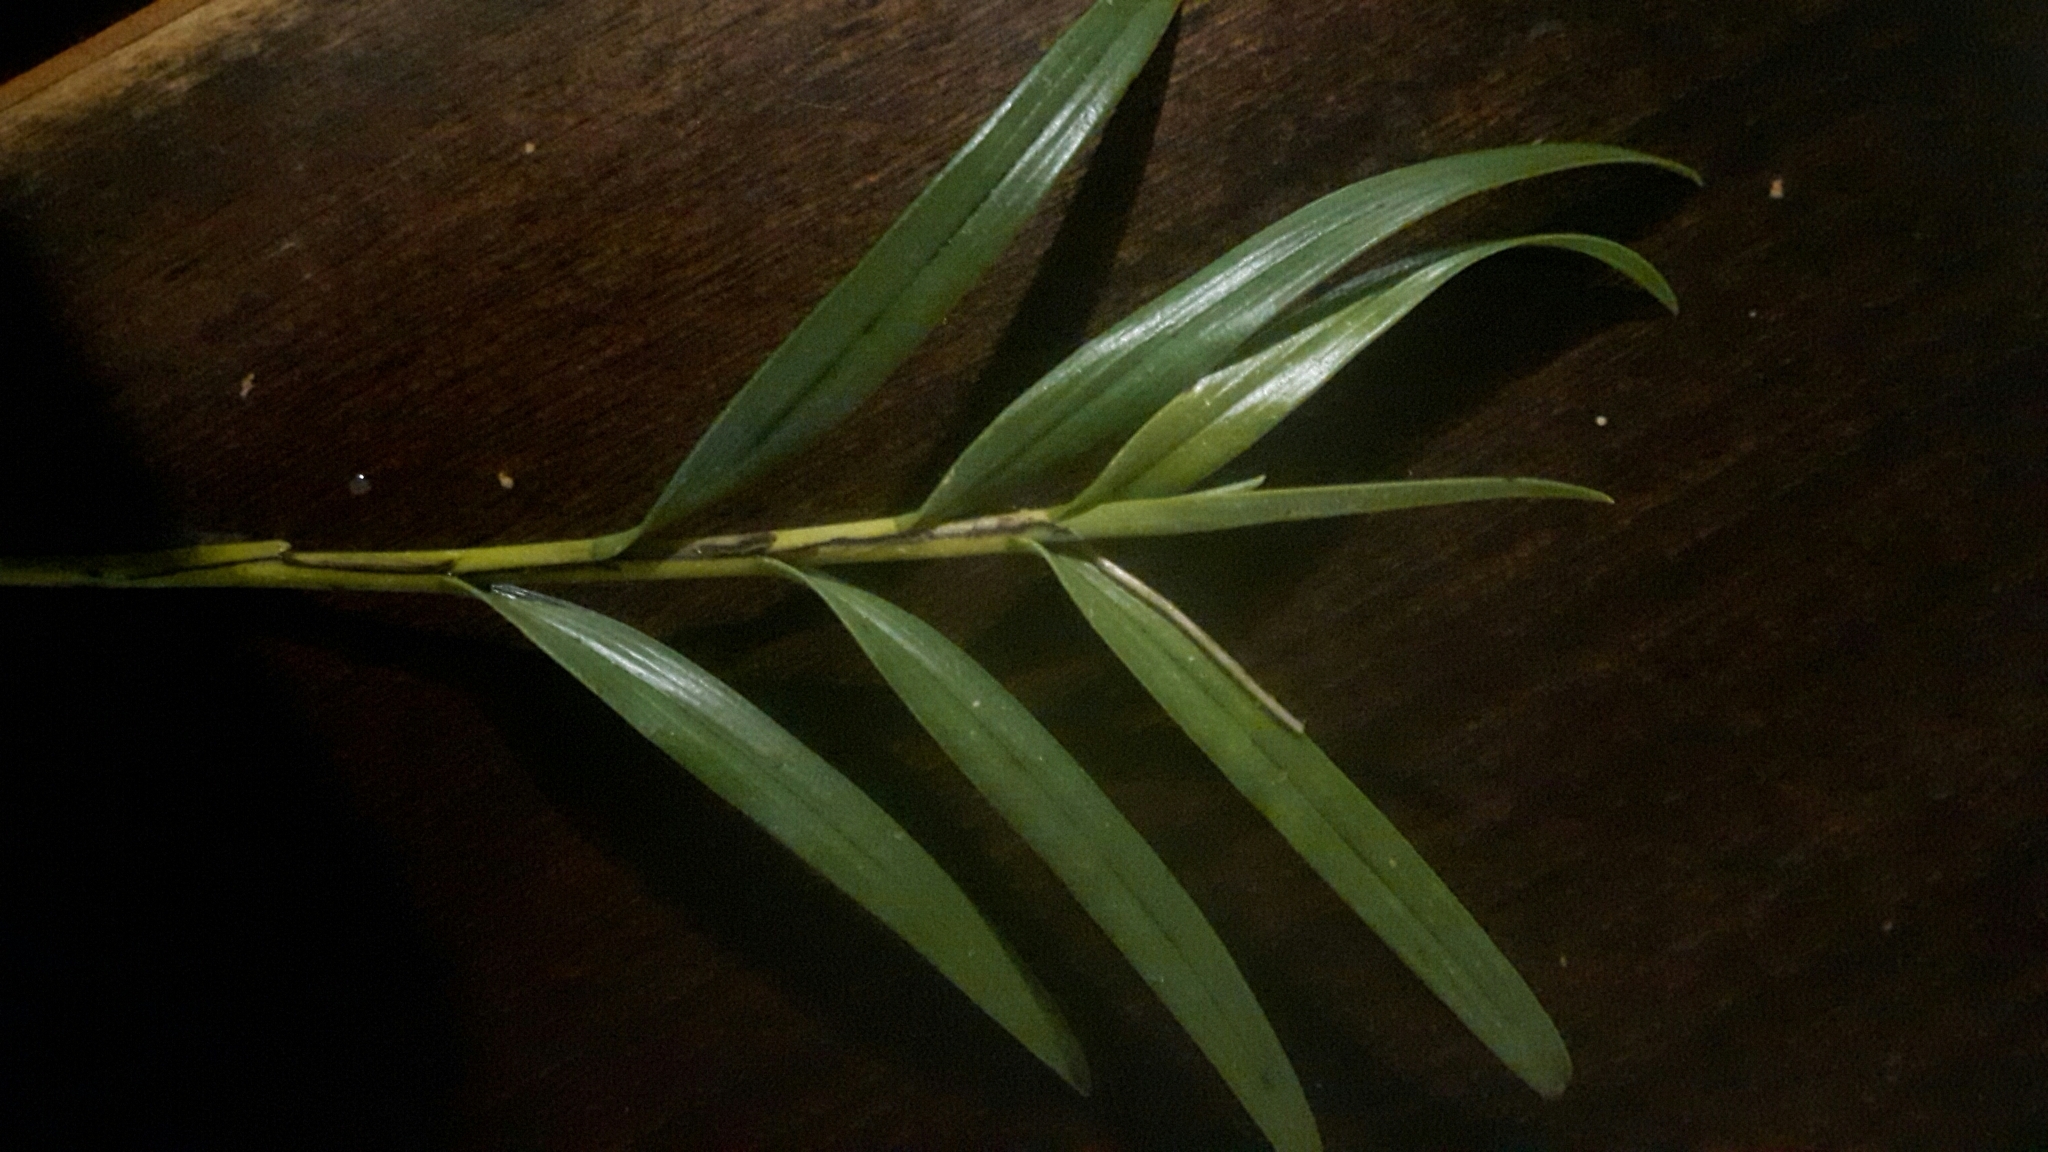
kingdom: Plantae
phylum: Tracheophyta
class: Liliopsida
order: Asparagales
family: Orchidaceae
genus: Earina
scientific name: Earina autumnalis
